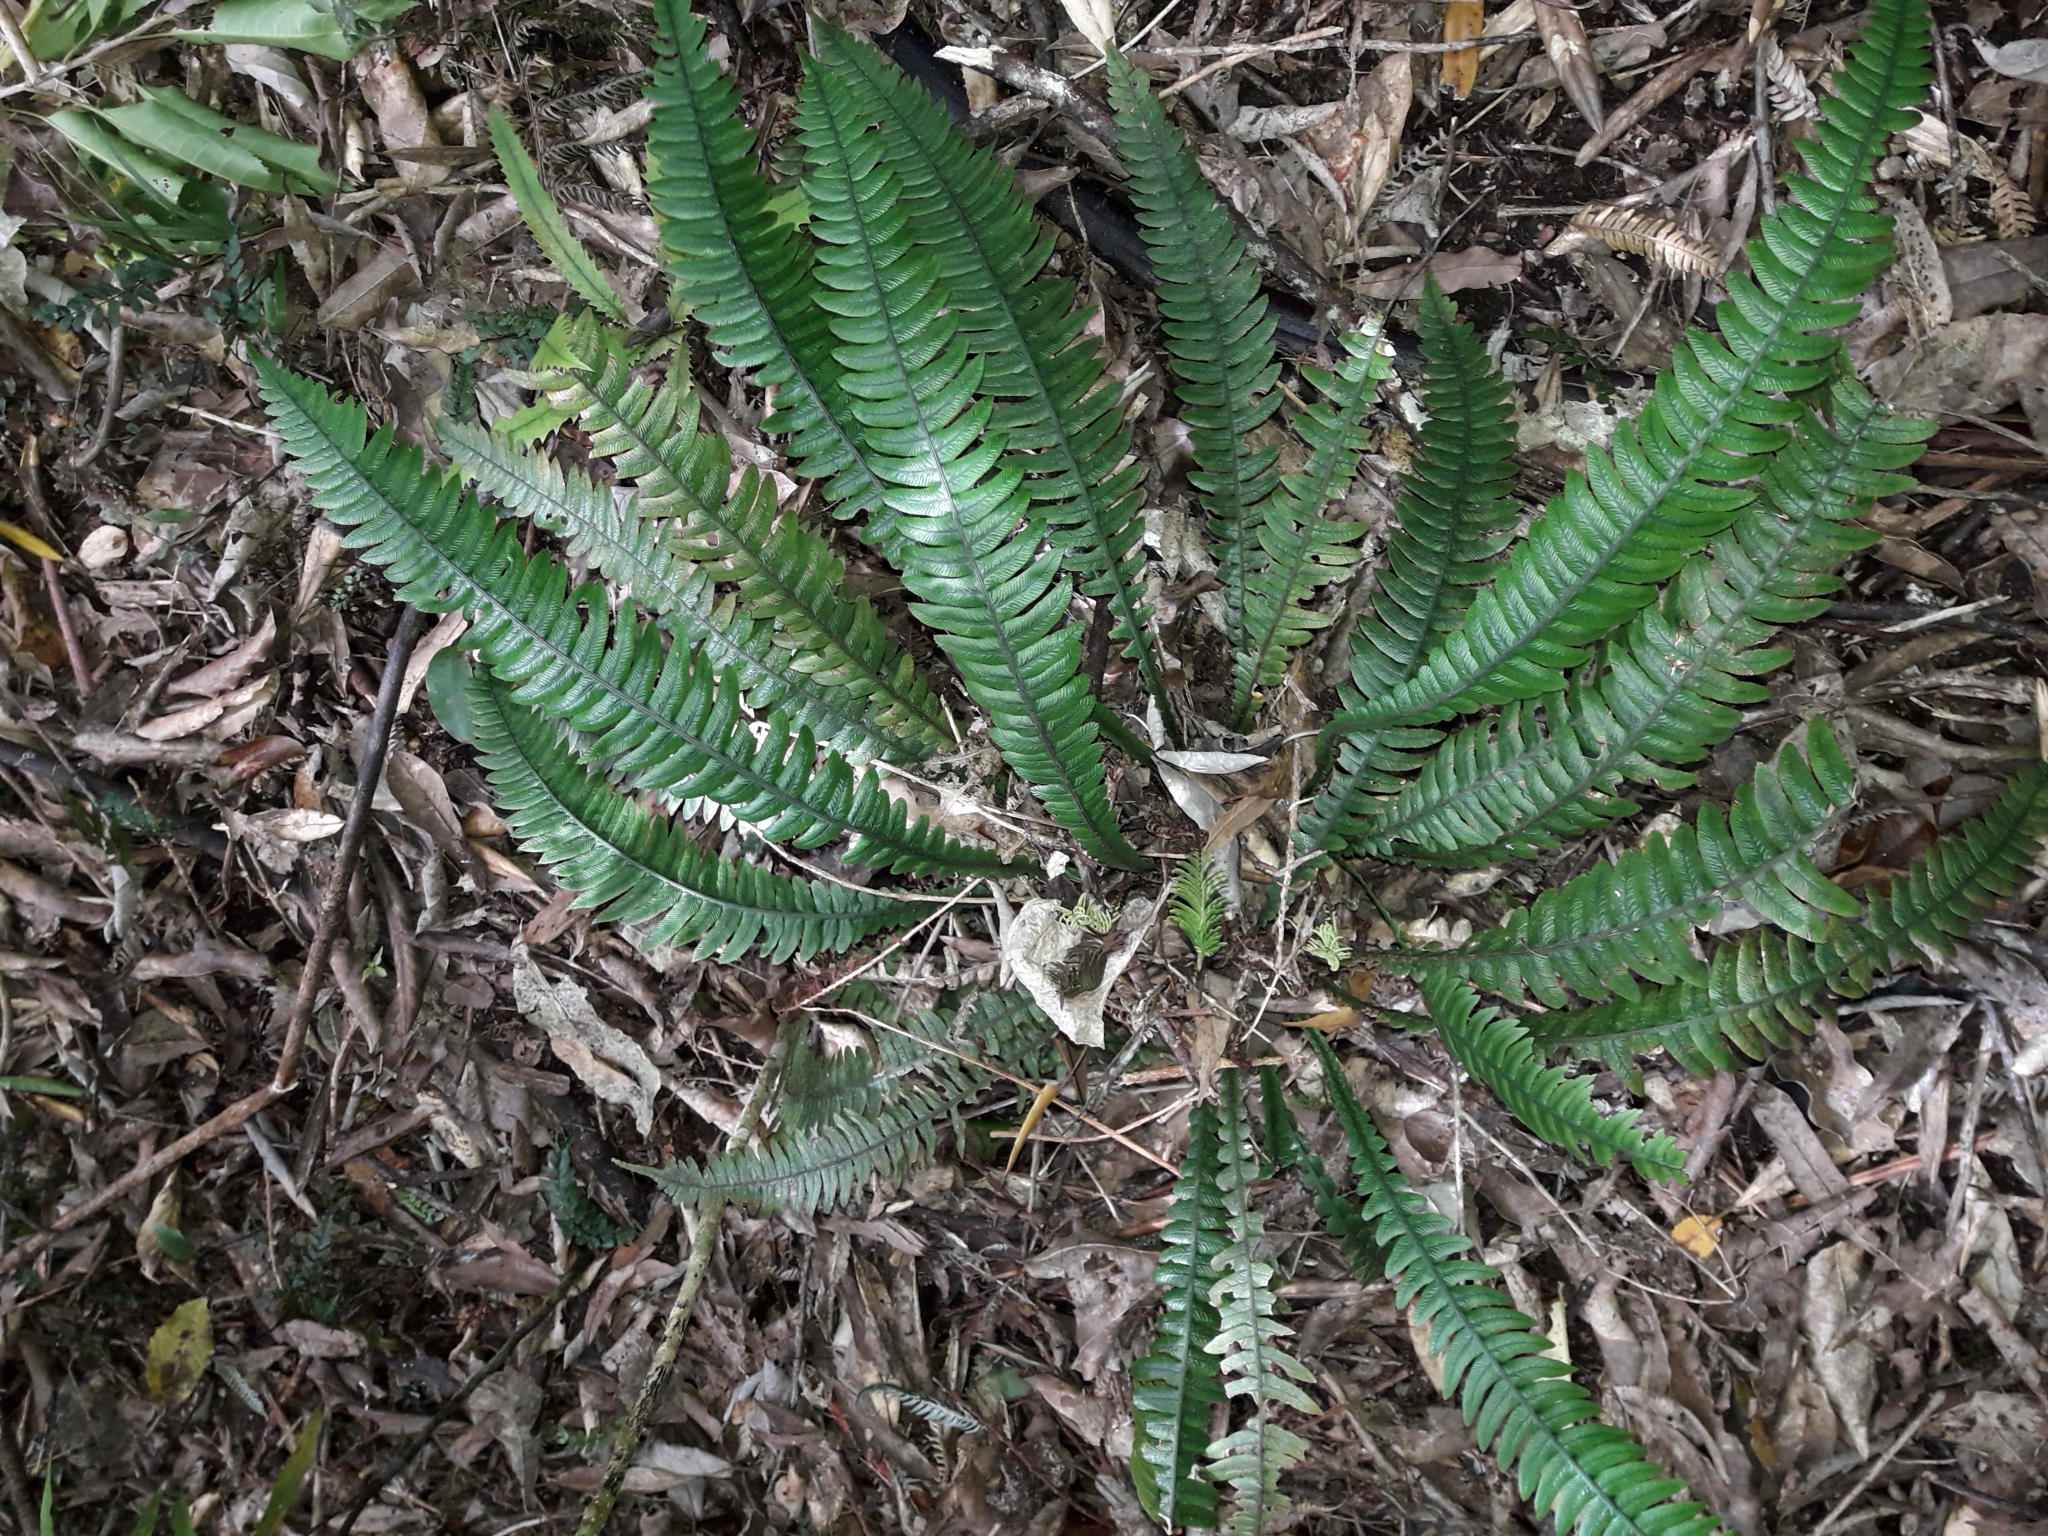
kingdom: Plantae
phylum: Tracheophyta
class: Polypodiopsida
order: Polypodiales
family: Blechnaceae
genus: Austroblechnum
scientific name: Austroblechnum lanceolatum
